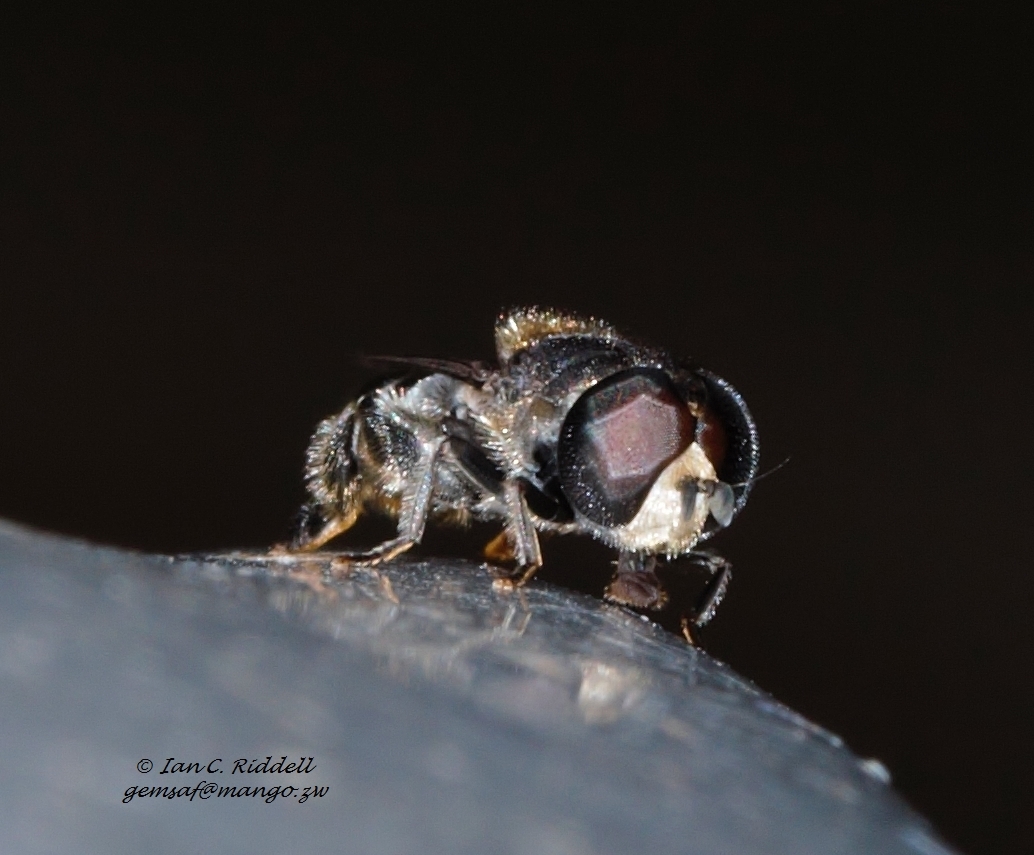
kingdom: Animalia
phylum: Arthropoda
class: Insecta
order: Diptera
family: Syrphidae
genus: Eumerus
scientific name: Eumerus obliquus
